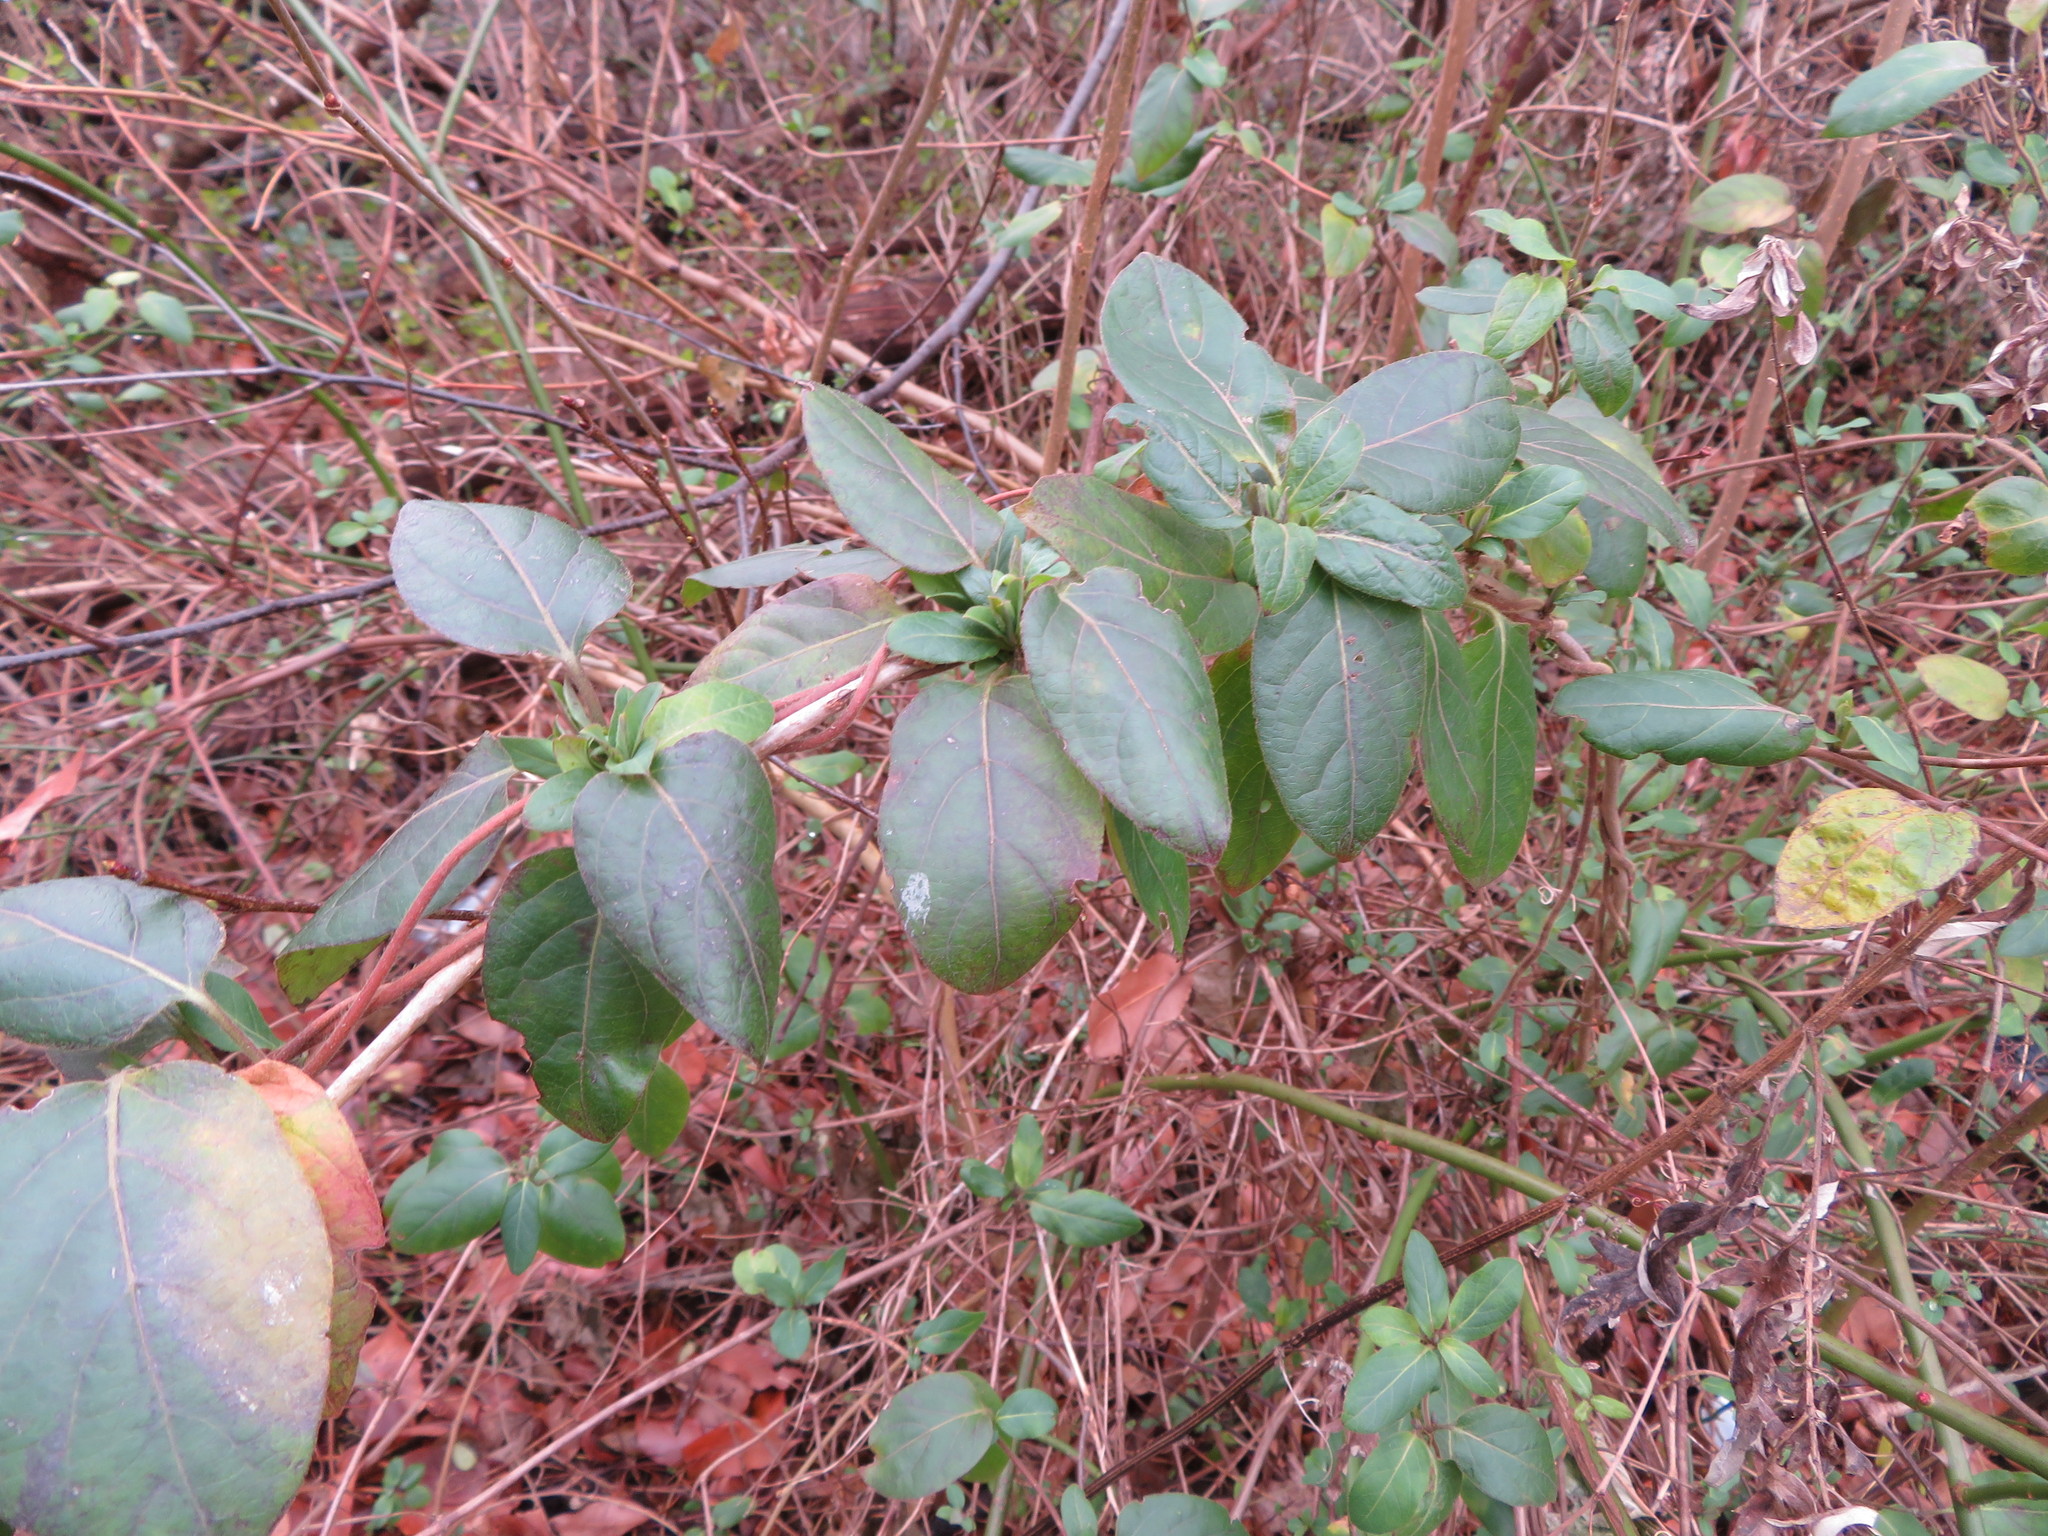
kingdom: Plantae
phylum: Tracheophyta
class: Magnoliopsida
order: Dipsacales
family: Caprifoliaceae
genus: Lonicera
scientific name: Lonicera japonica
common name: Japanese honeysuckle
